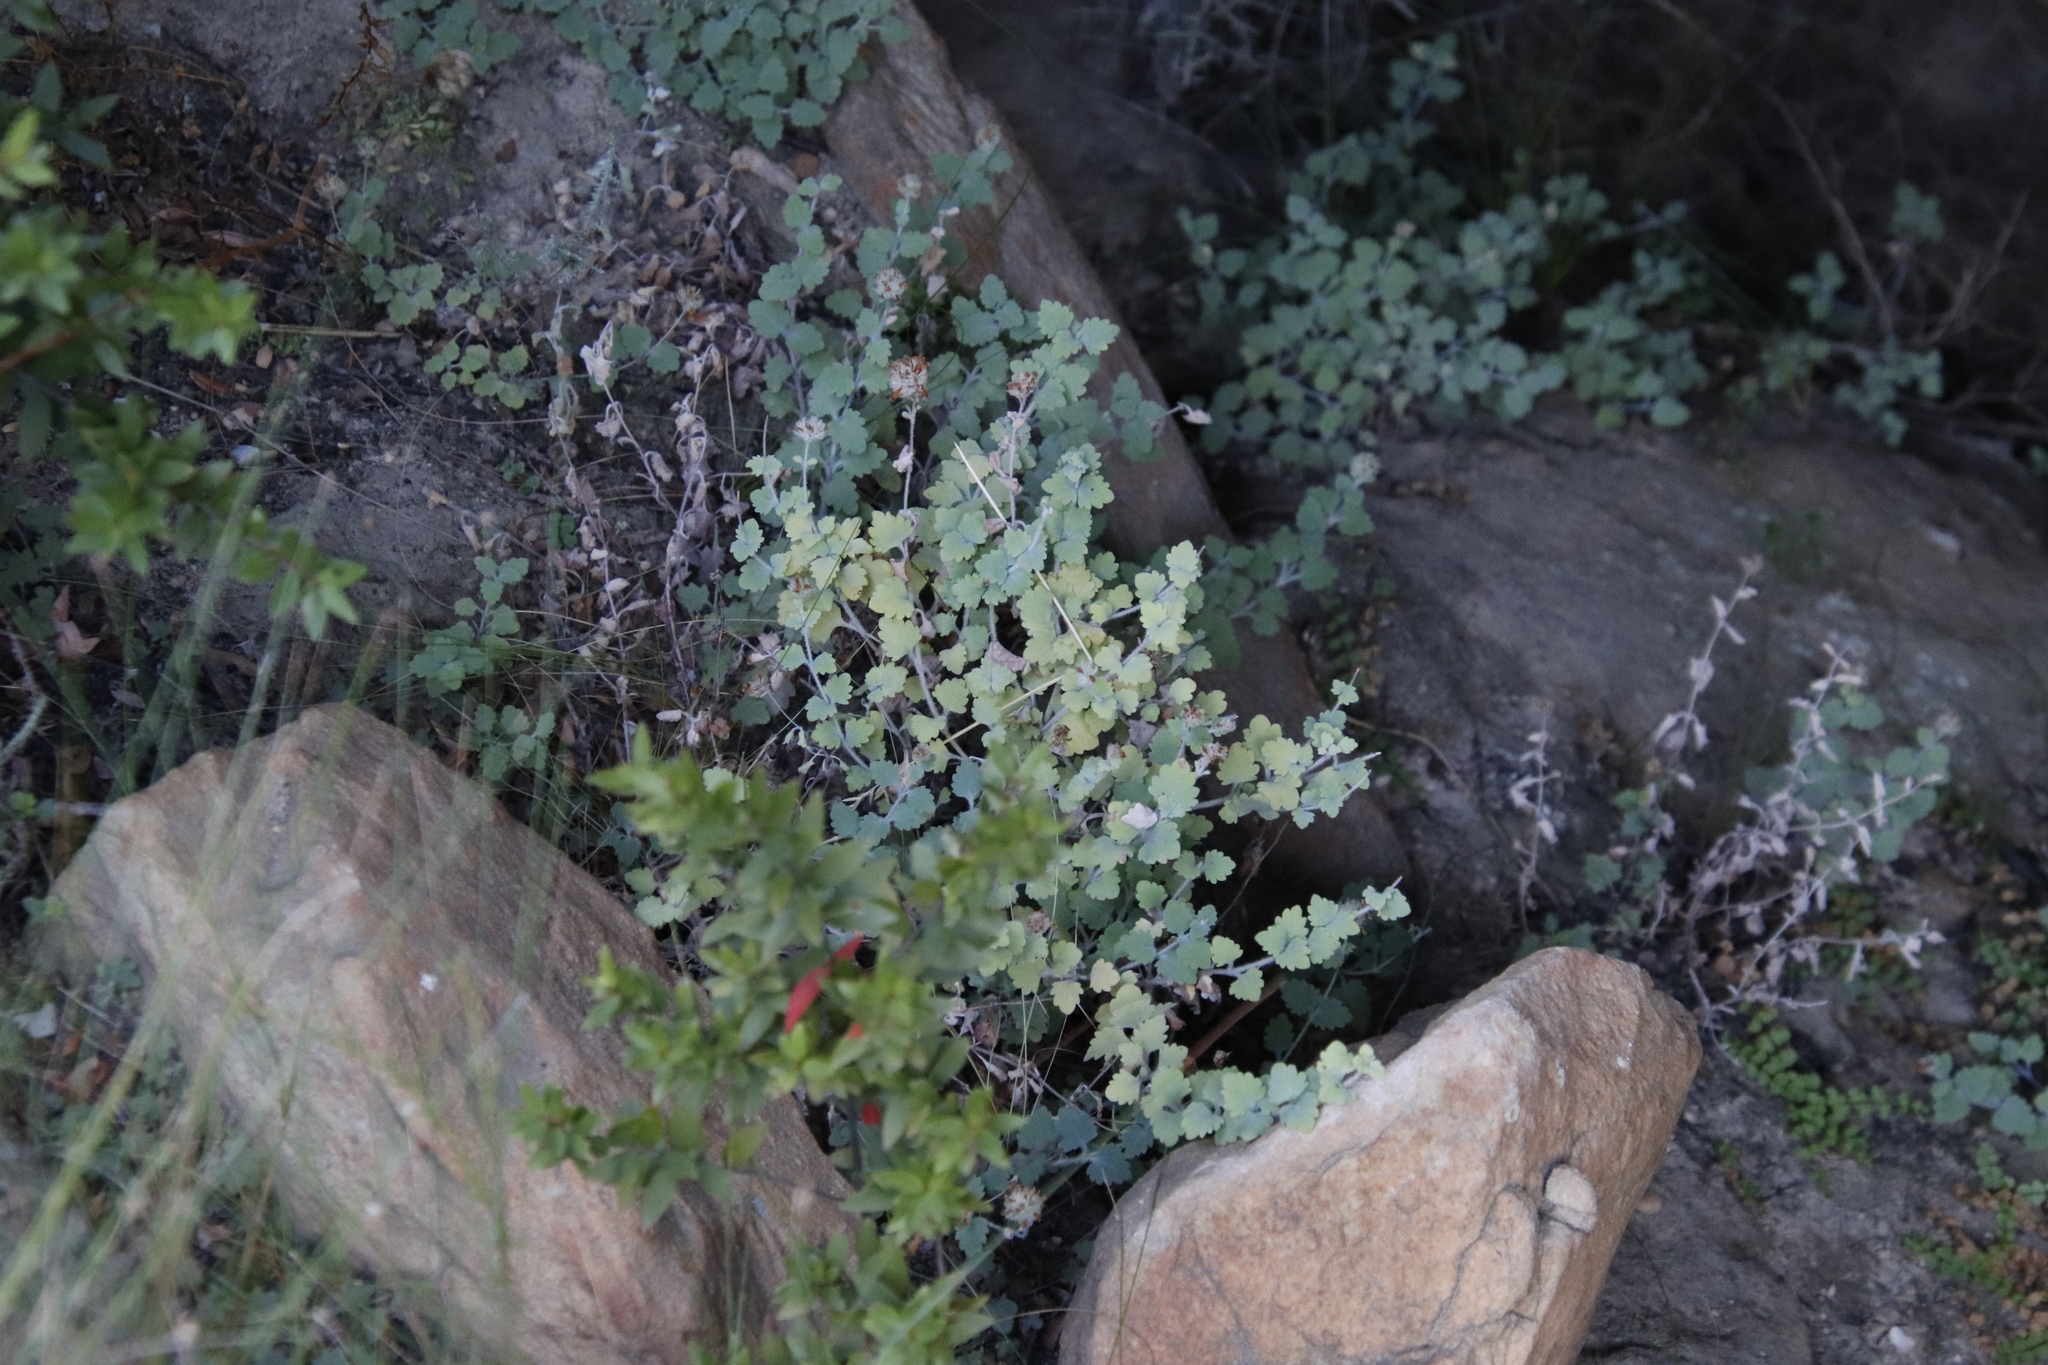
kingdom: Plantae
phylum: Tracheophyta
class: Magnoliopsida
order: Asterales
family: Asteraceae
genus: Lidbeckia
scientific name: Lidbeckia quinqueloba
